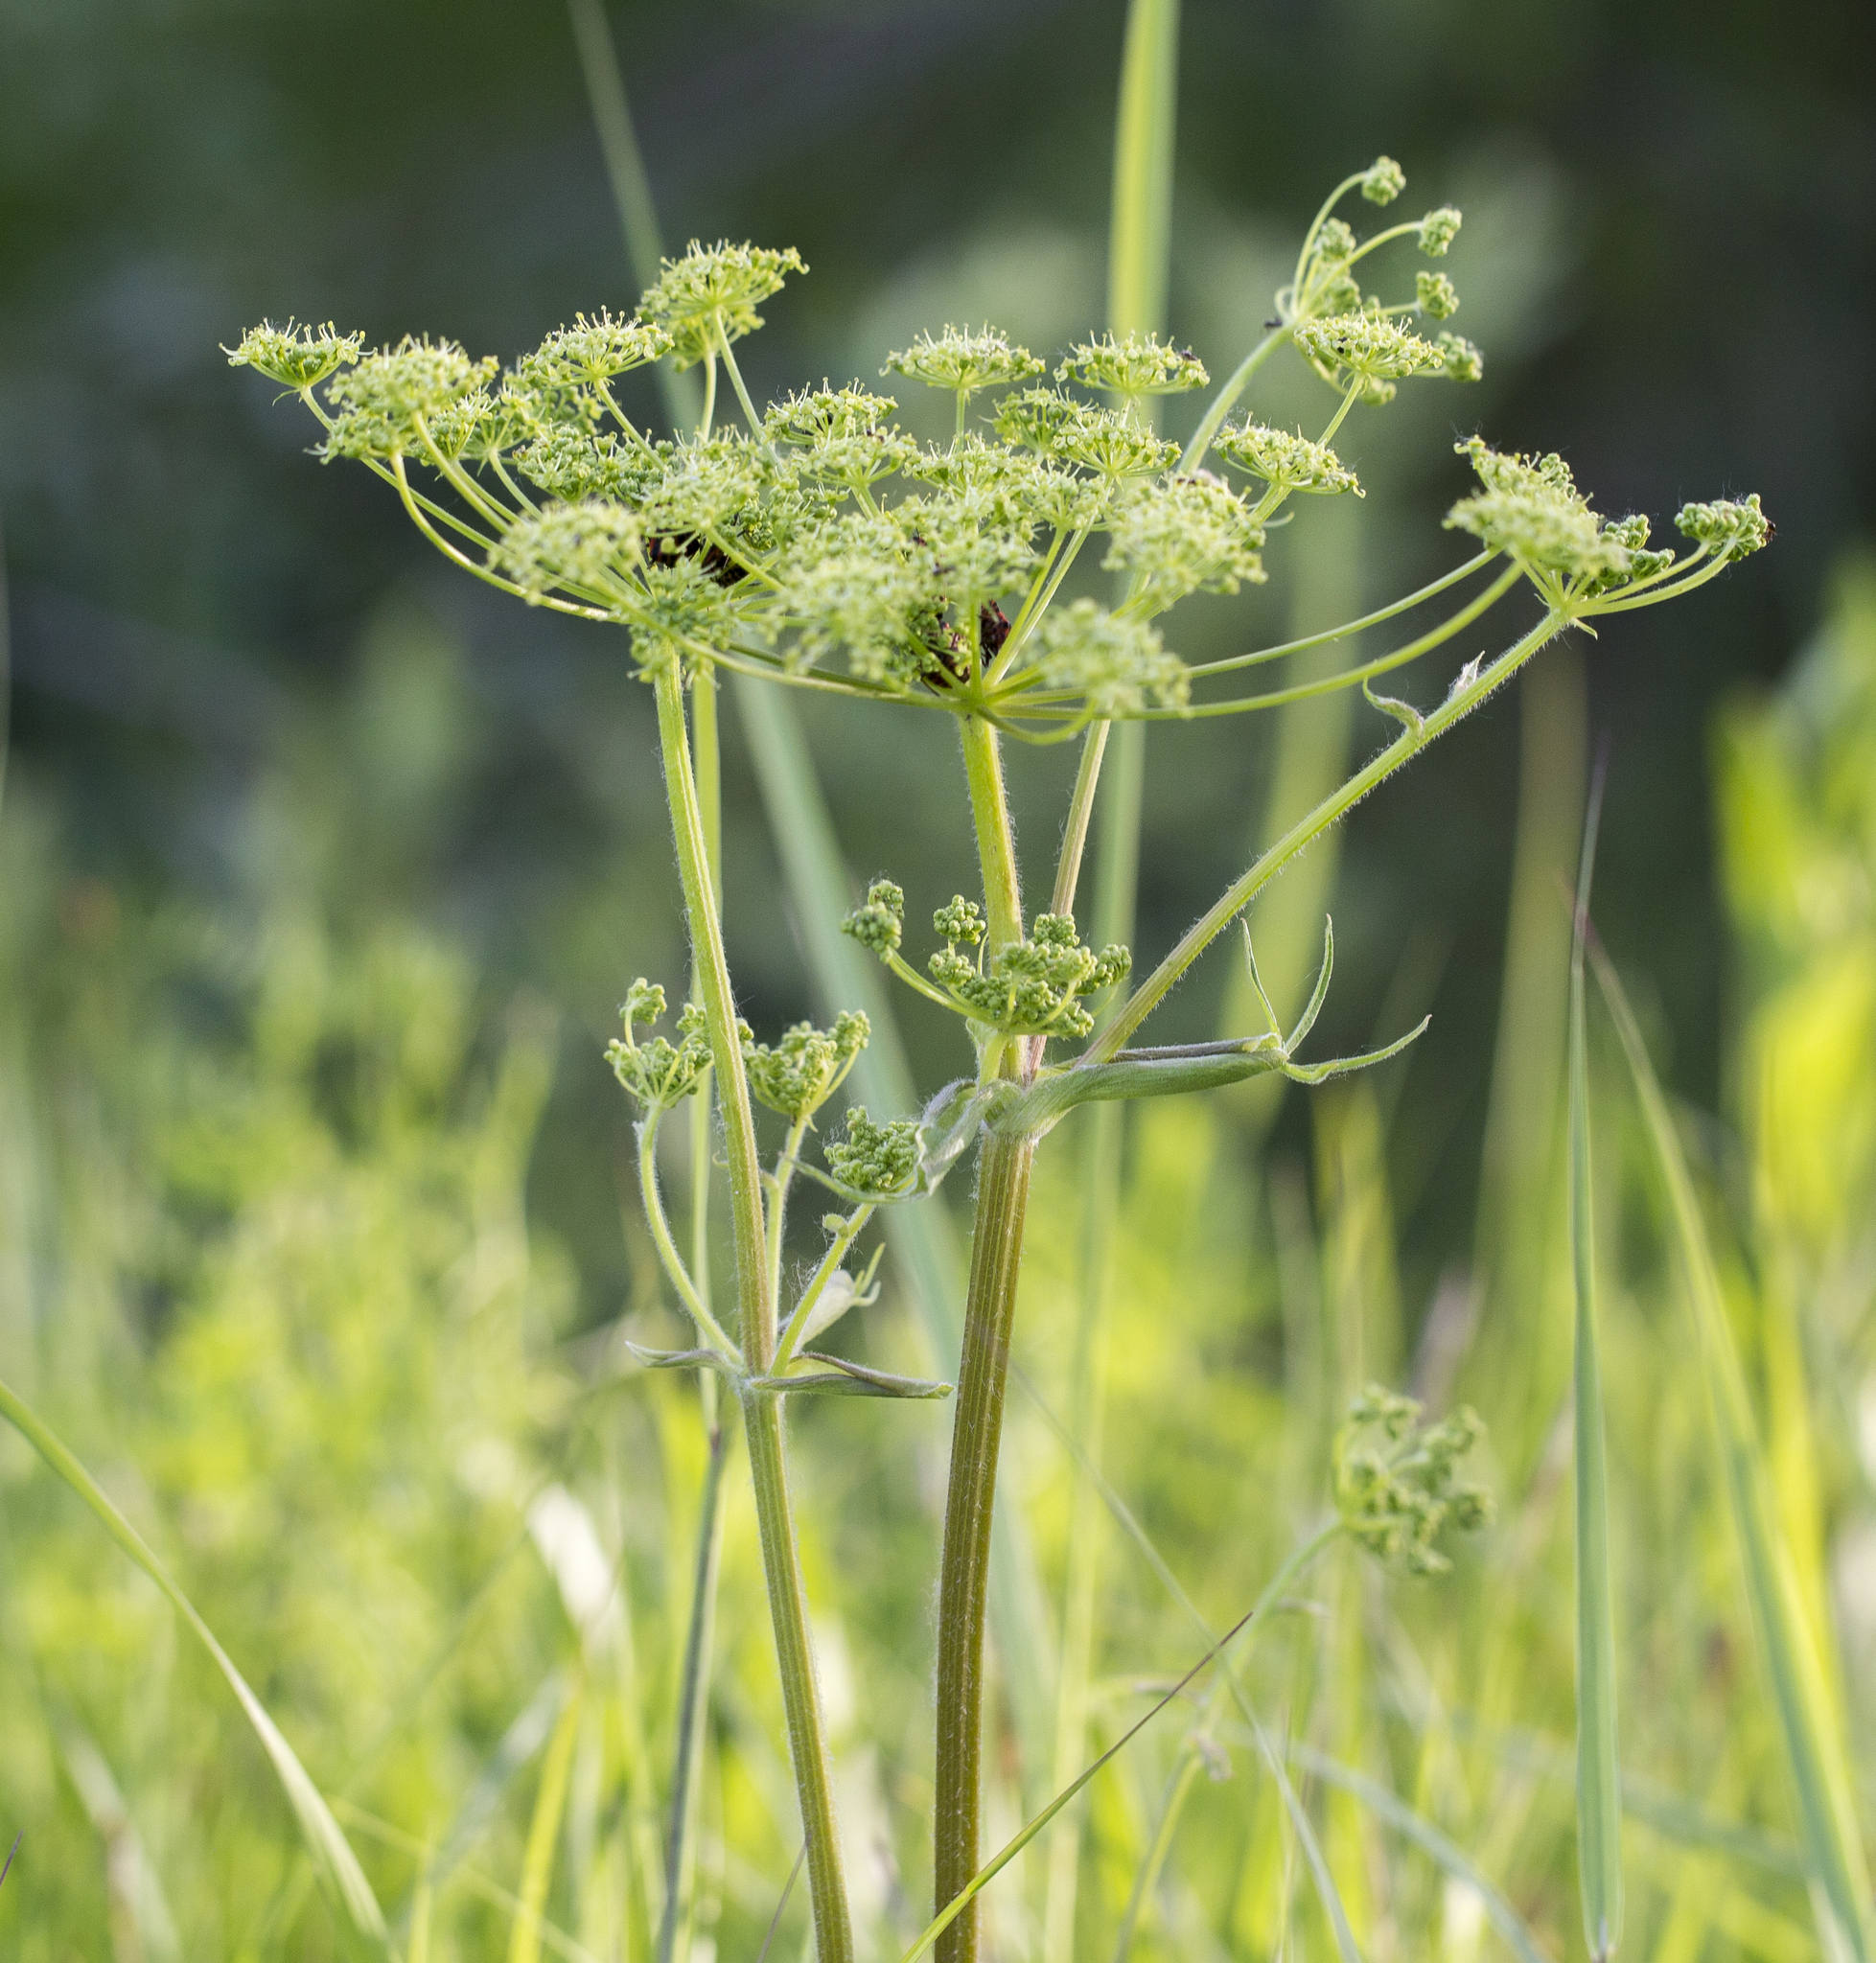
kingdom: Plantae
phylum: Tracheophyta
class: Magnoliopsida
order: Apiales
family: Apiaceae
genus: Heracleum
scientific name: Heracleum sphondylium
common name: Hogweed
